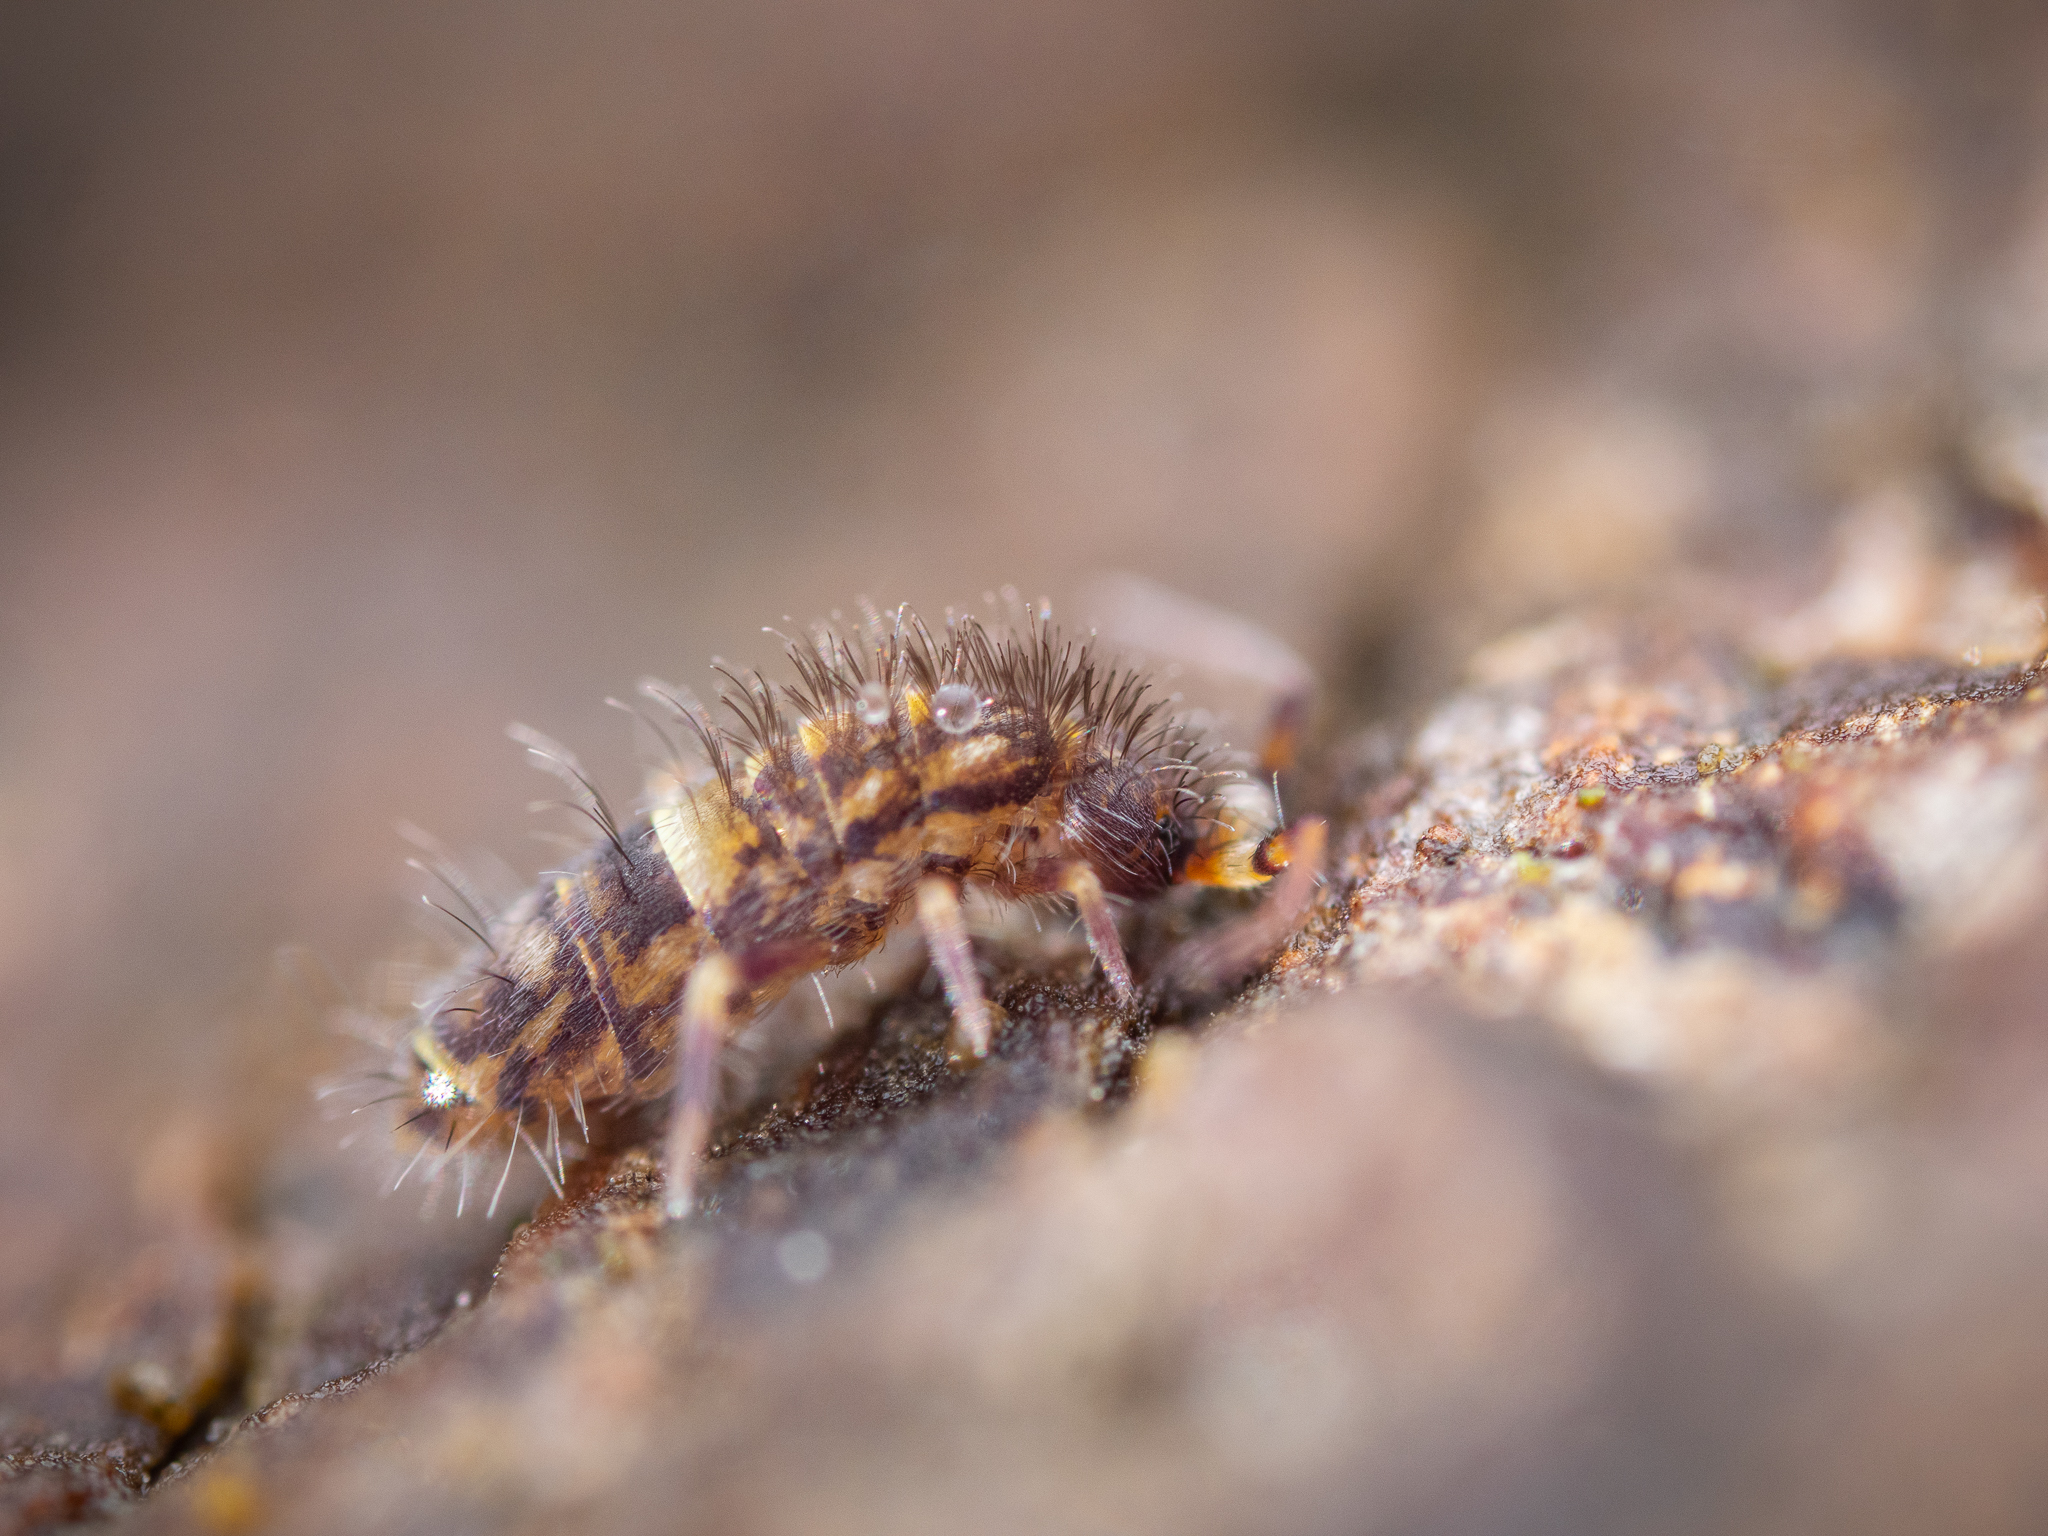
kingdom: Animalia
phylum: Arthropoda
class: Collembola
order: Entomobryomorpha
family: Orchesellidae
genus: Orchesella
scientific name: Orchesella cincta
